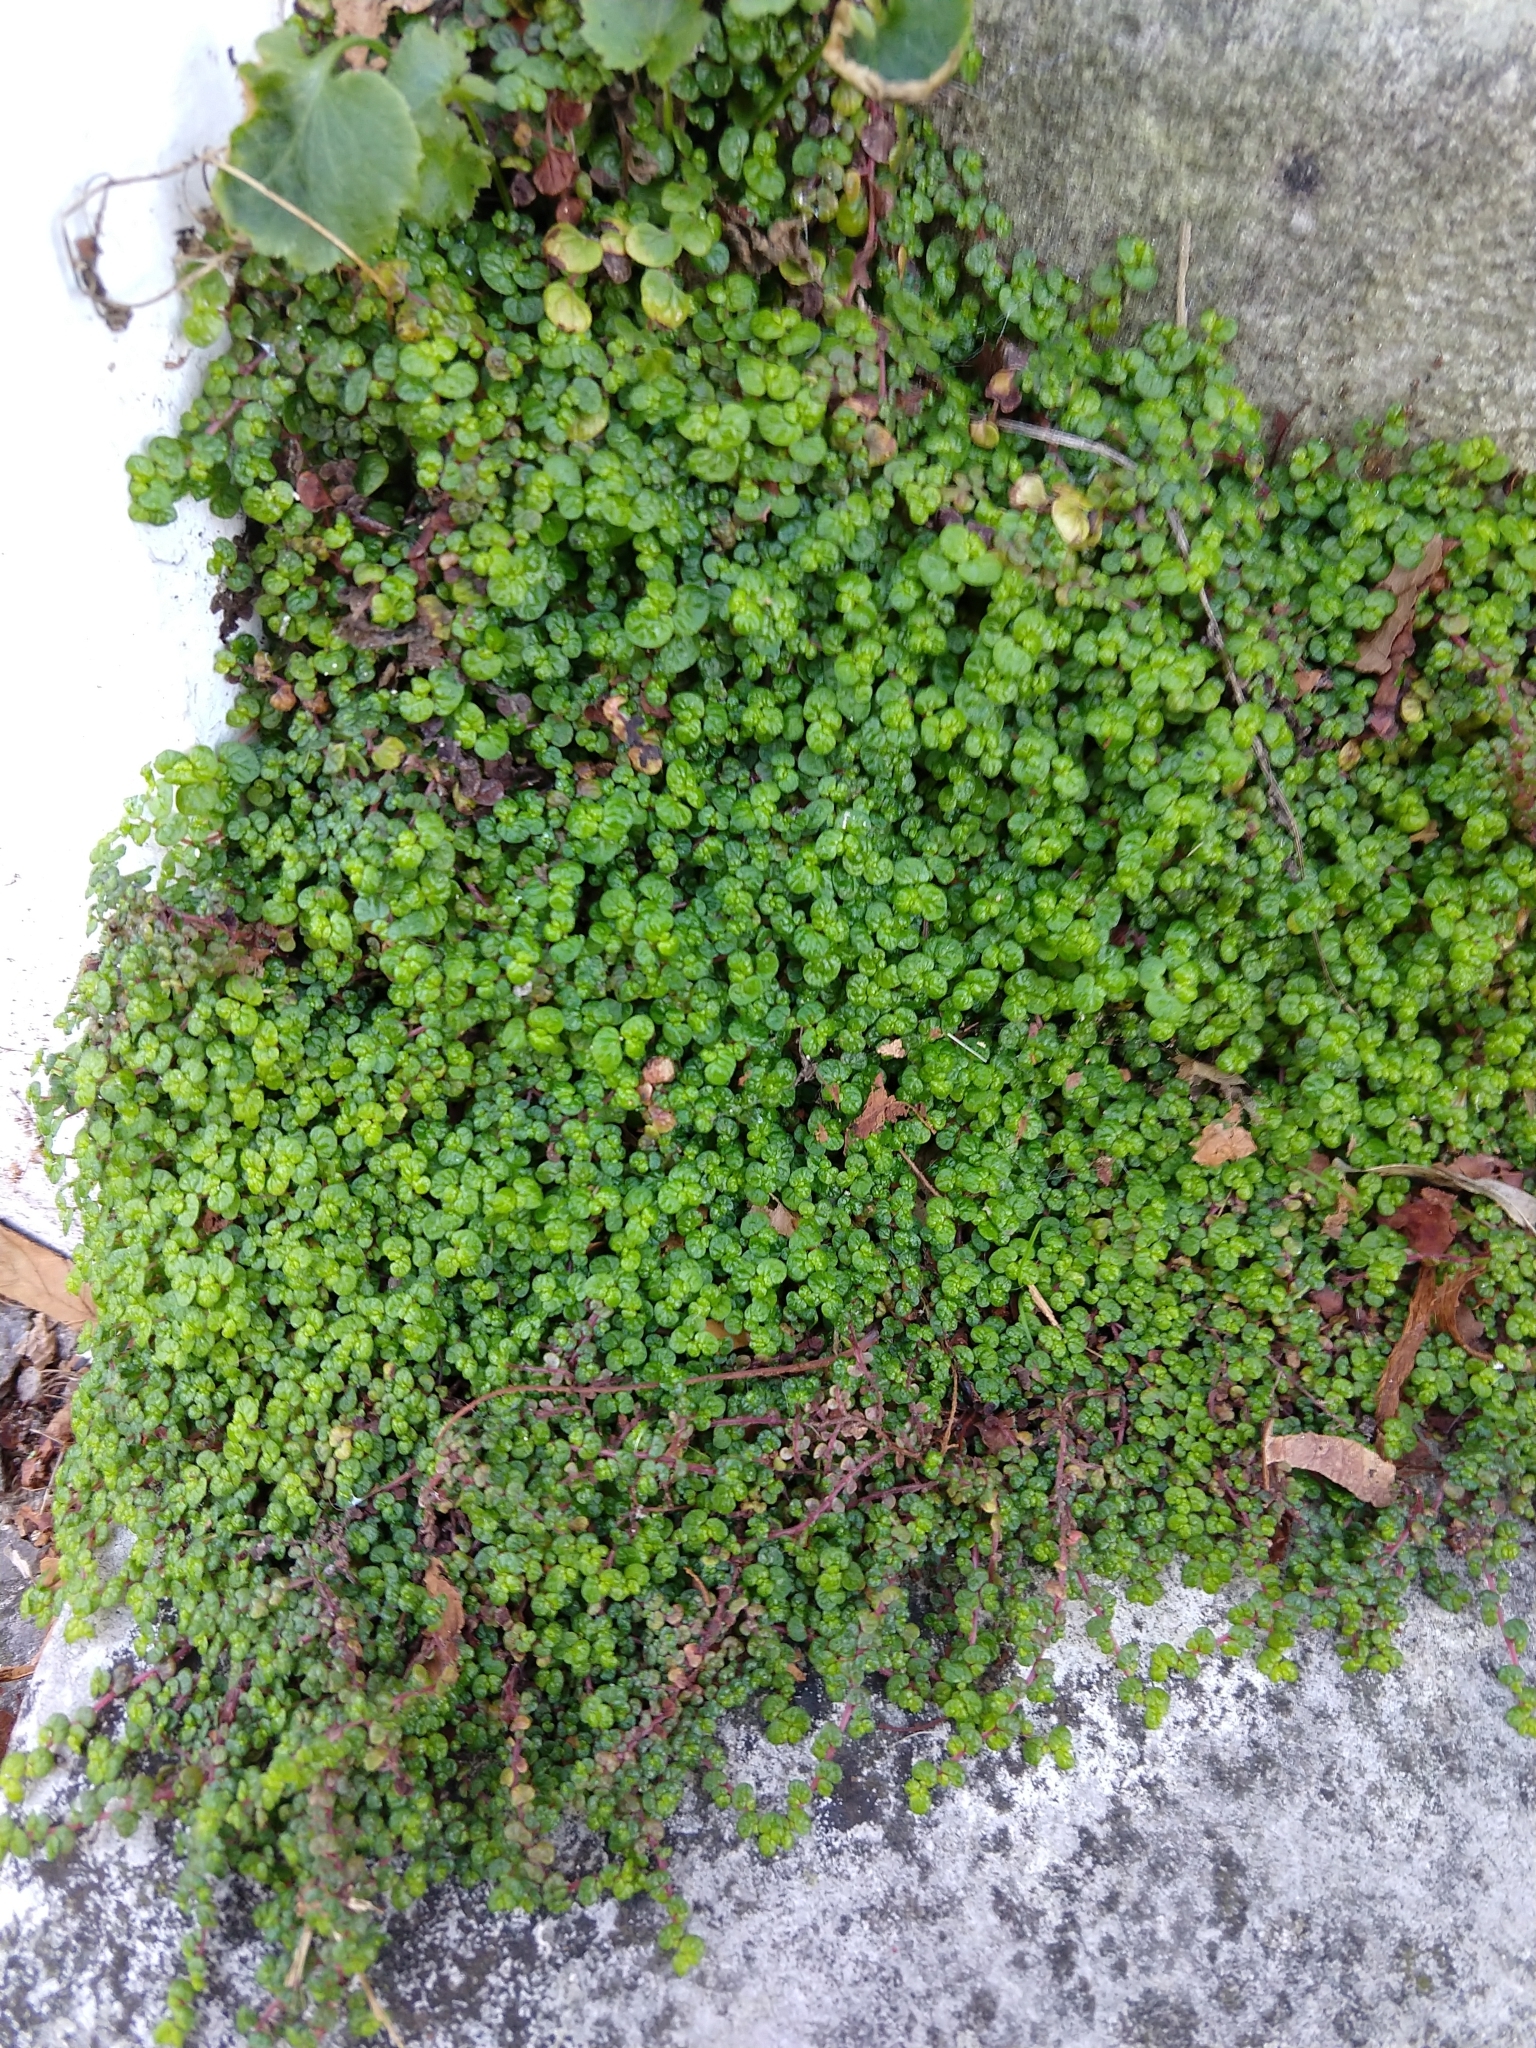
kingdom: Plantae
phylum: Tracheophyta
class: Magnoliopsida
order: Rosales
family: Urticaceae
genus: Soleirolia
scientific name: Soleirolia soleirolii
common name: Mind-your-own-business
